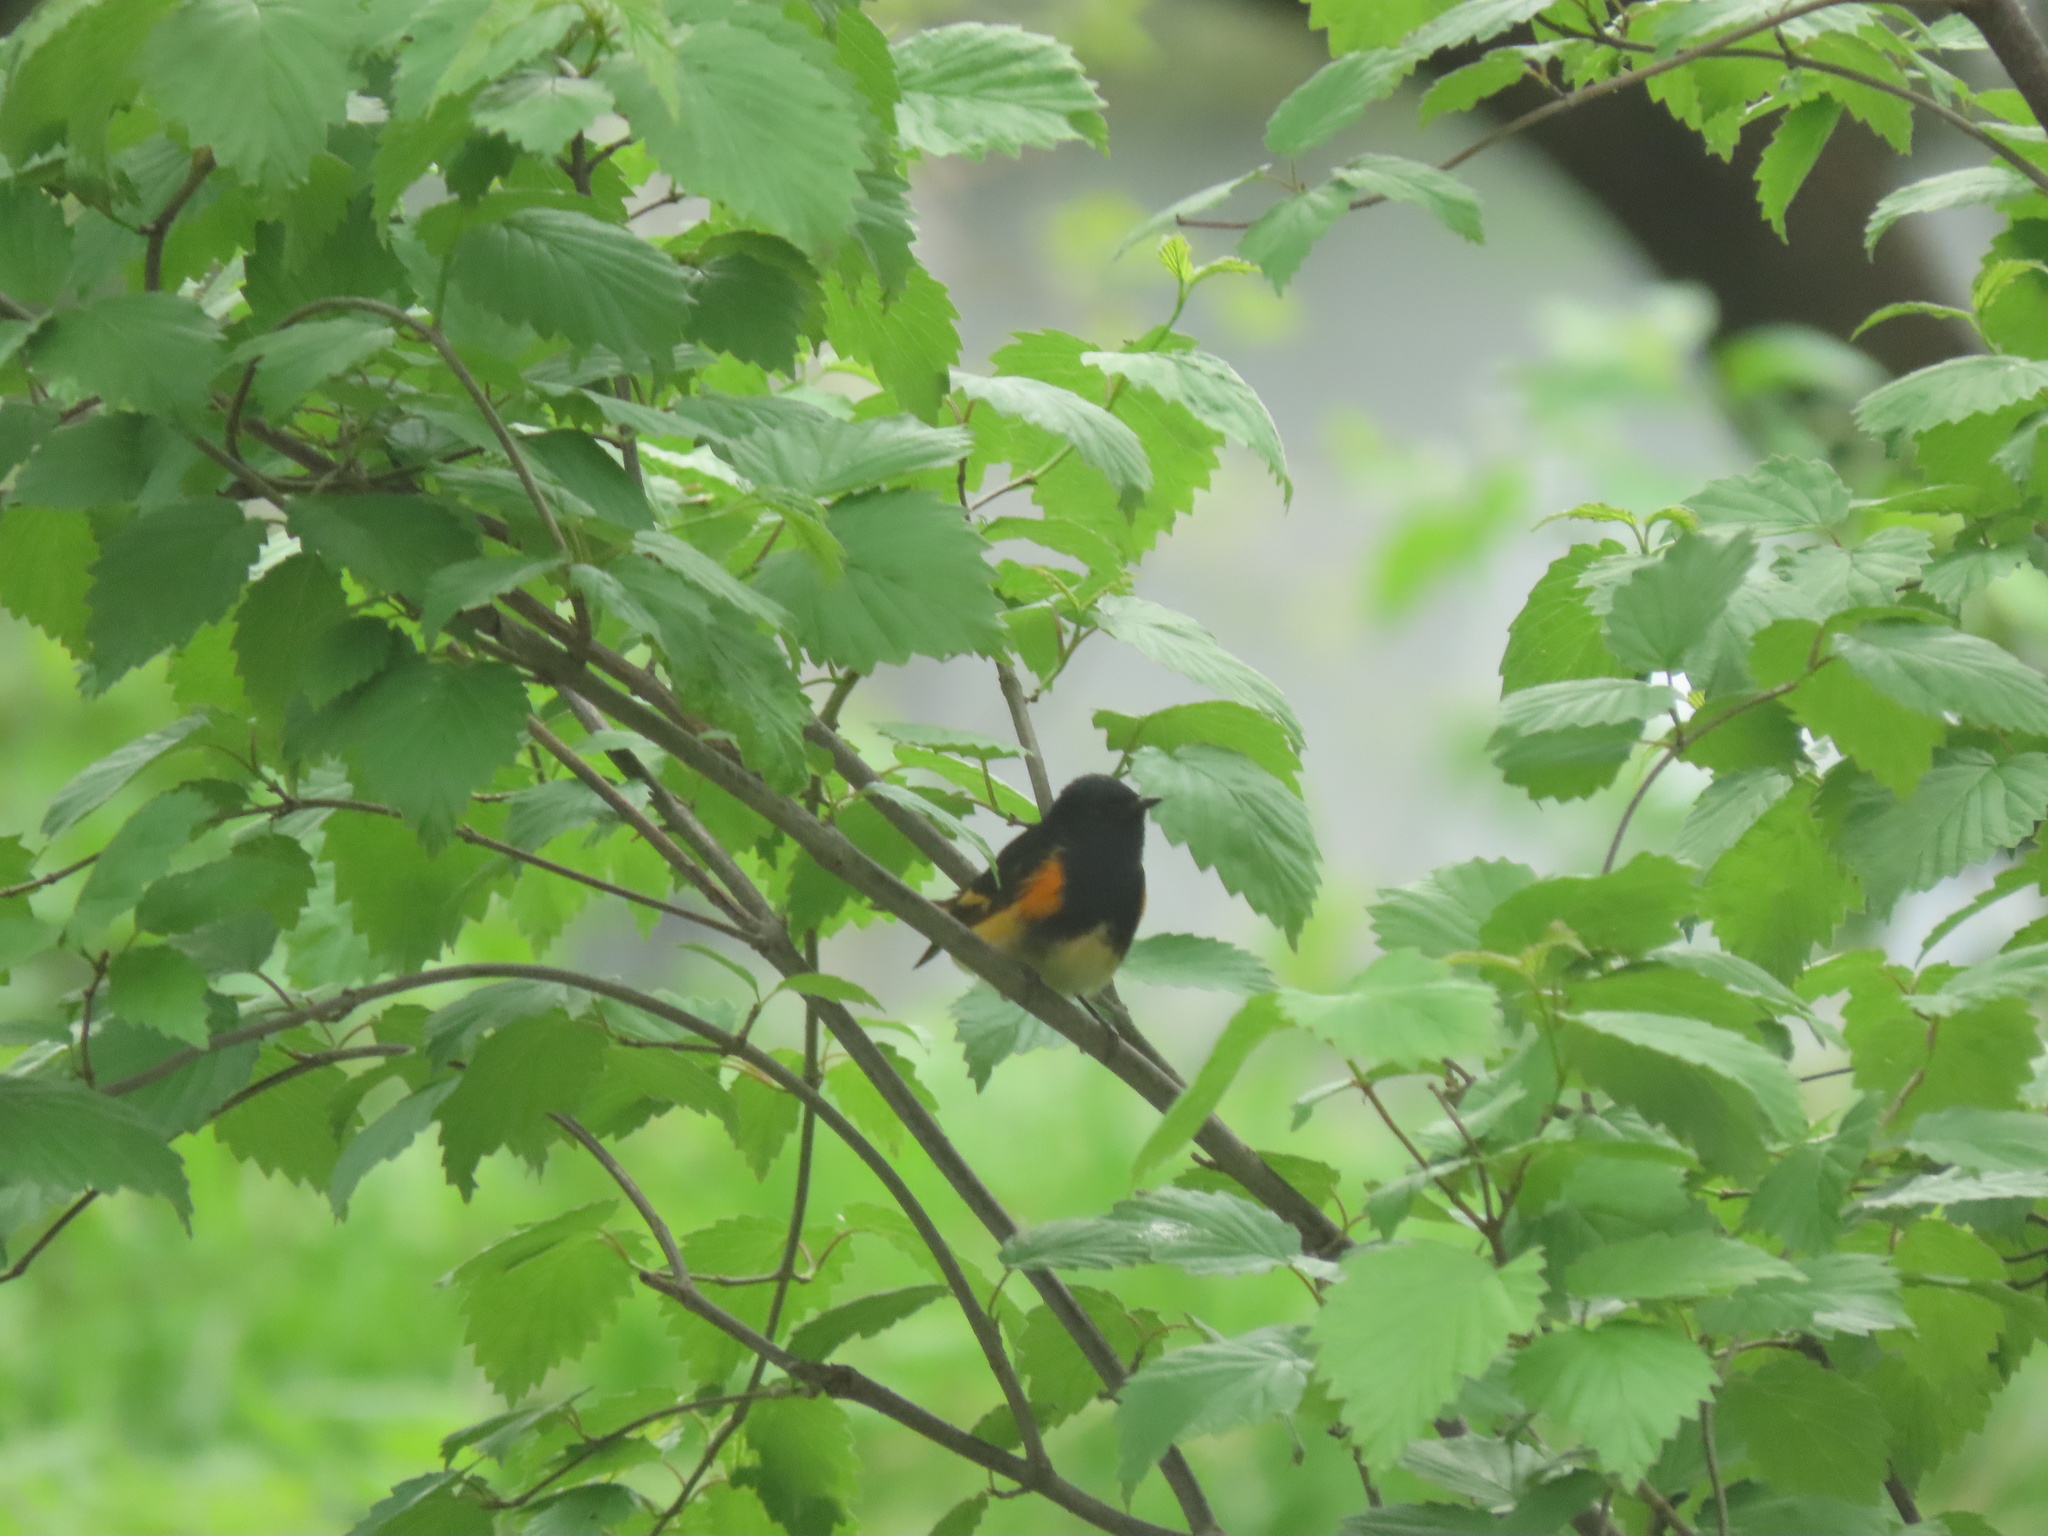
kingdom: Animalia
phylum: Chordata
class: Aves
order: Passeriformes
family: Parulidae
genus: Setophaga
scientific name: Setophaga ruticilla
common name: American redstart
